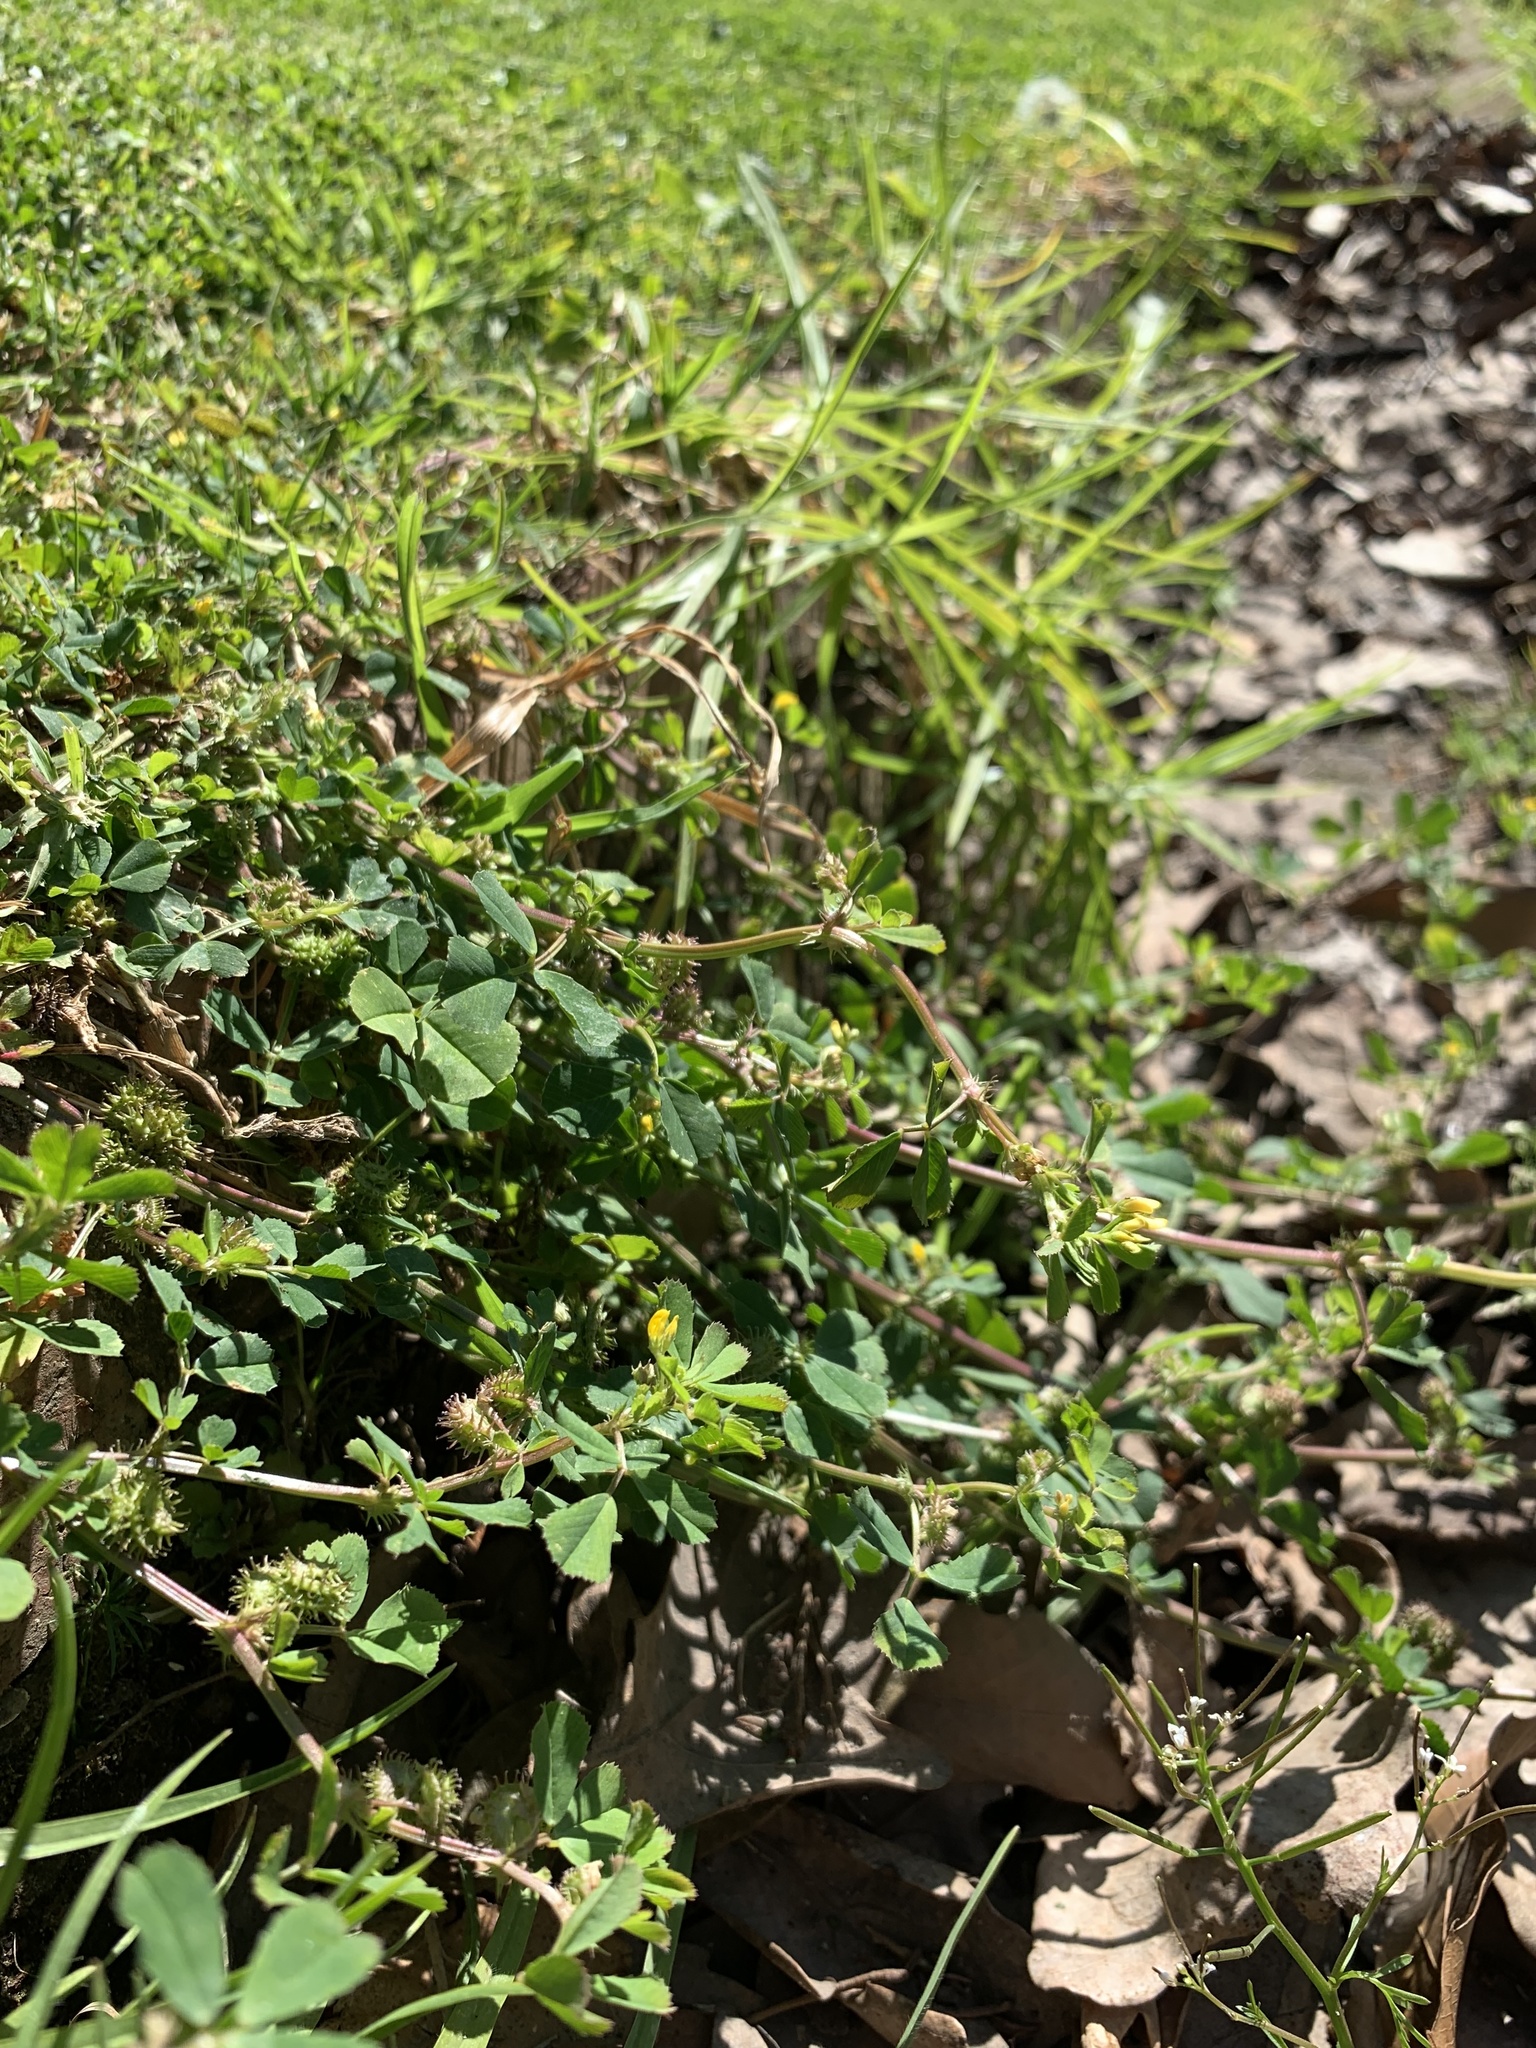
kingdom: Plantae
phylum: Tracheophyta
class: Magnoliopsida
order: Fabales
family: Fabaceae
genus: Medicago
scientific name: Medicago polymorpha
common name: Burclover
